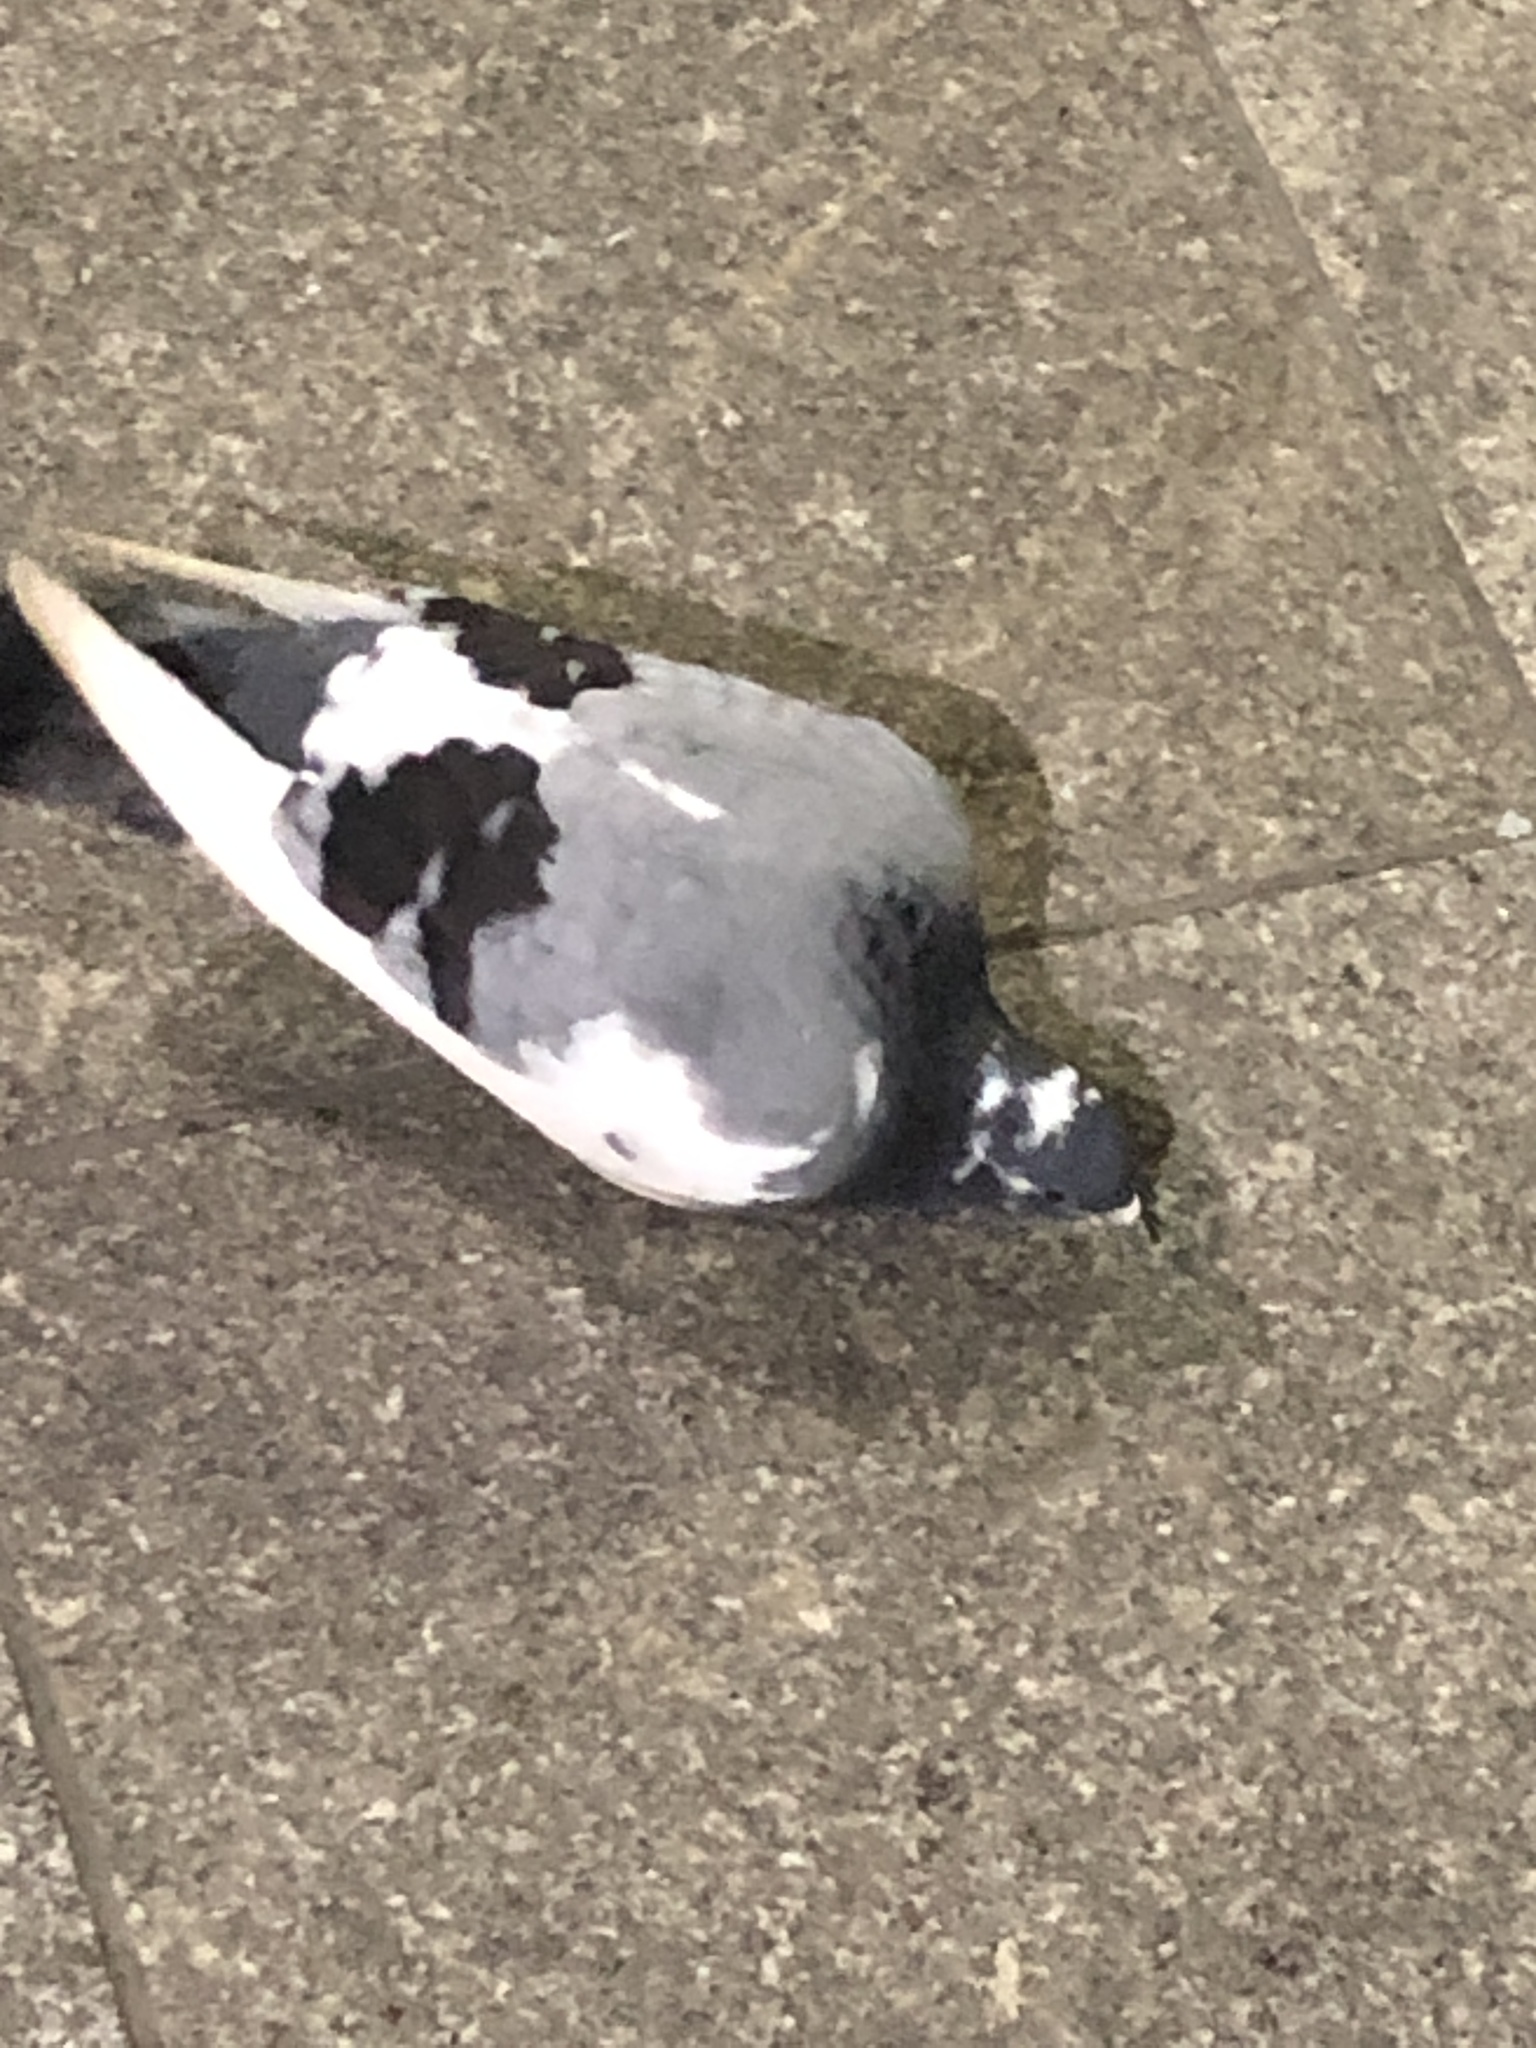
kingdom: Animalia
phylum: Chordata
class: Aves
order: Columbiformes
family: Columbidae
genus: Columba
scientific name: Columba livia
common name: Rock pigeon
